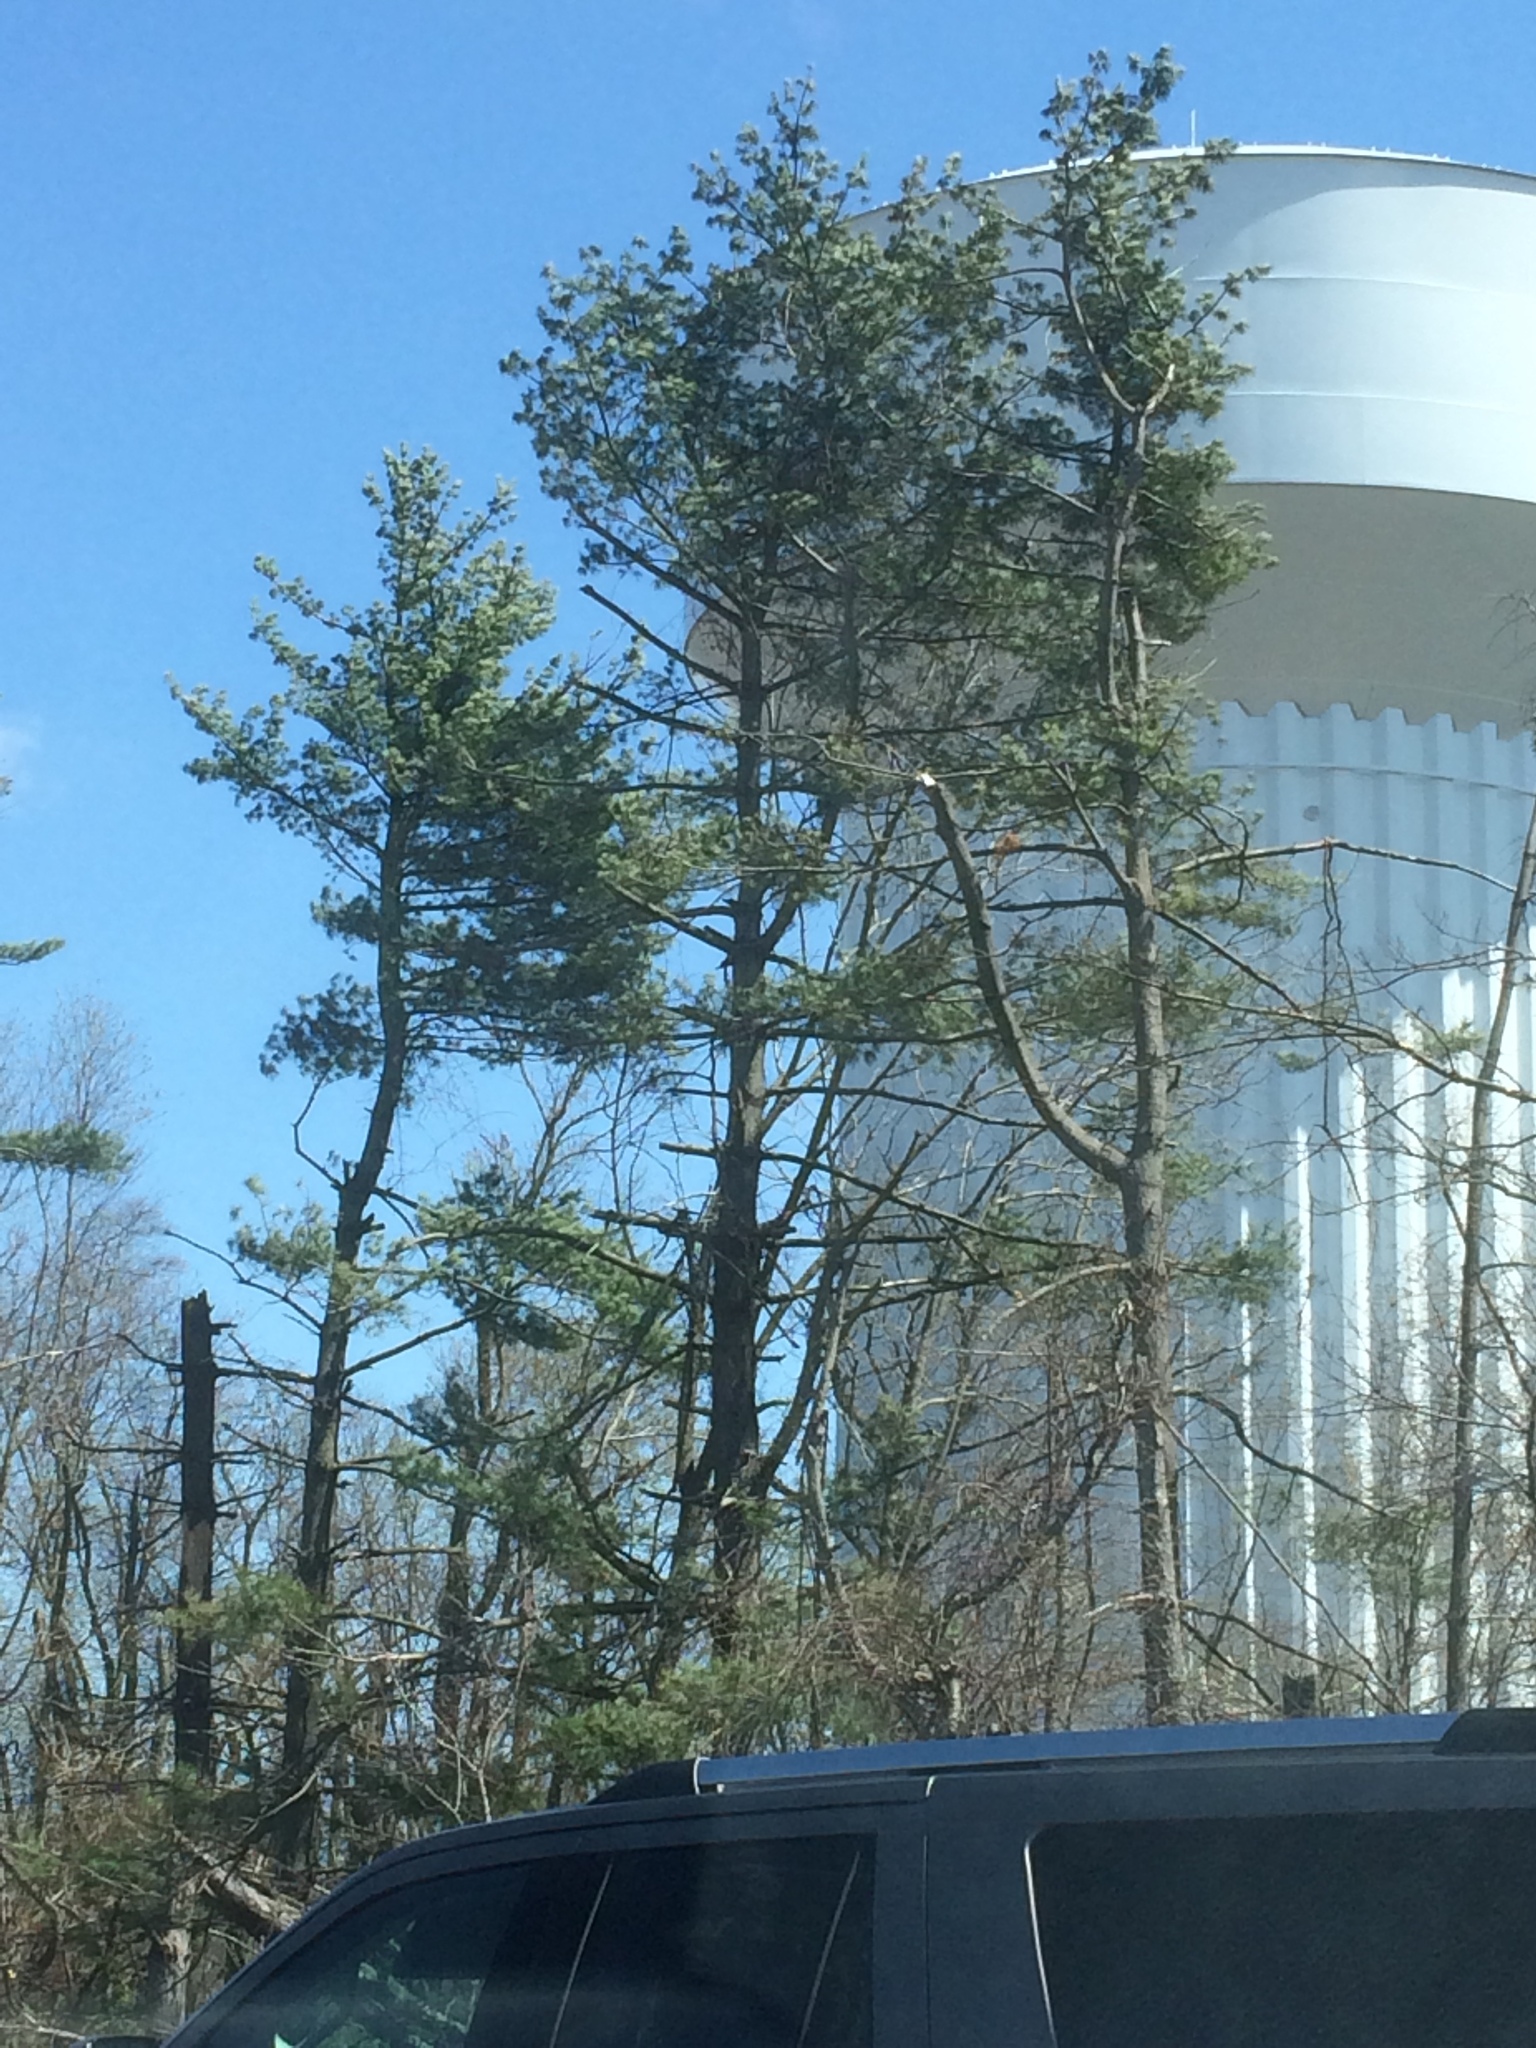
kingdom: Plantae
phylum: Tracheophyta
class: Pinopsida
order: Pinales
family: Pinaceae
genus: Pinus
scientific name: Pinus strobus
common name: Weymouth pine
